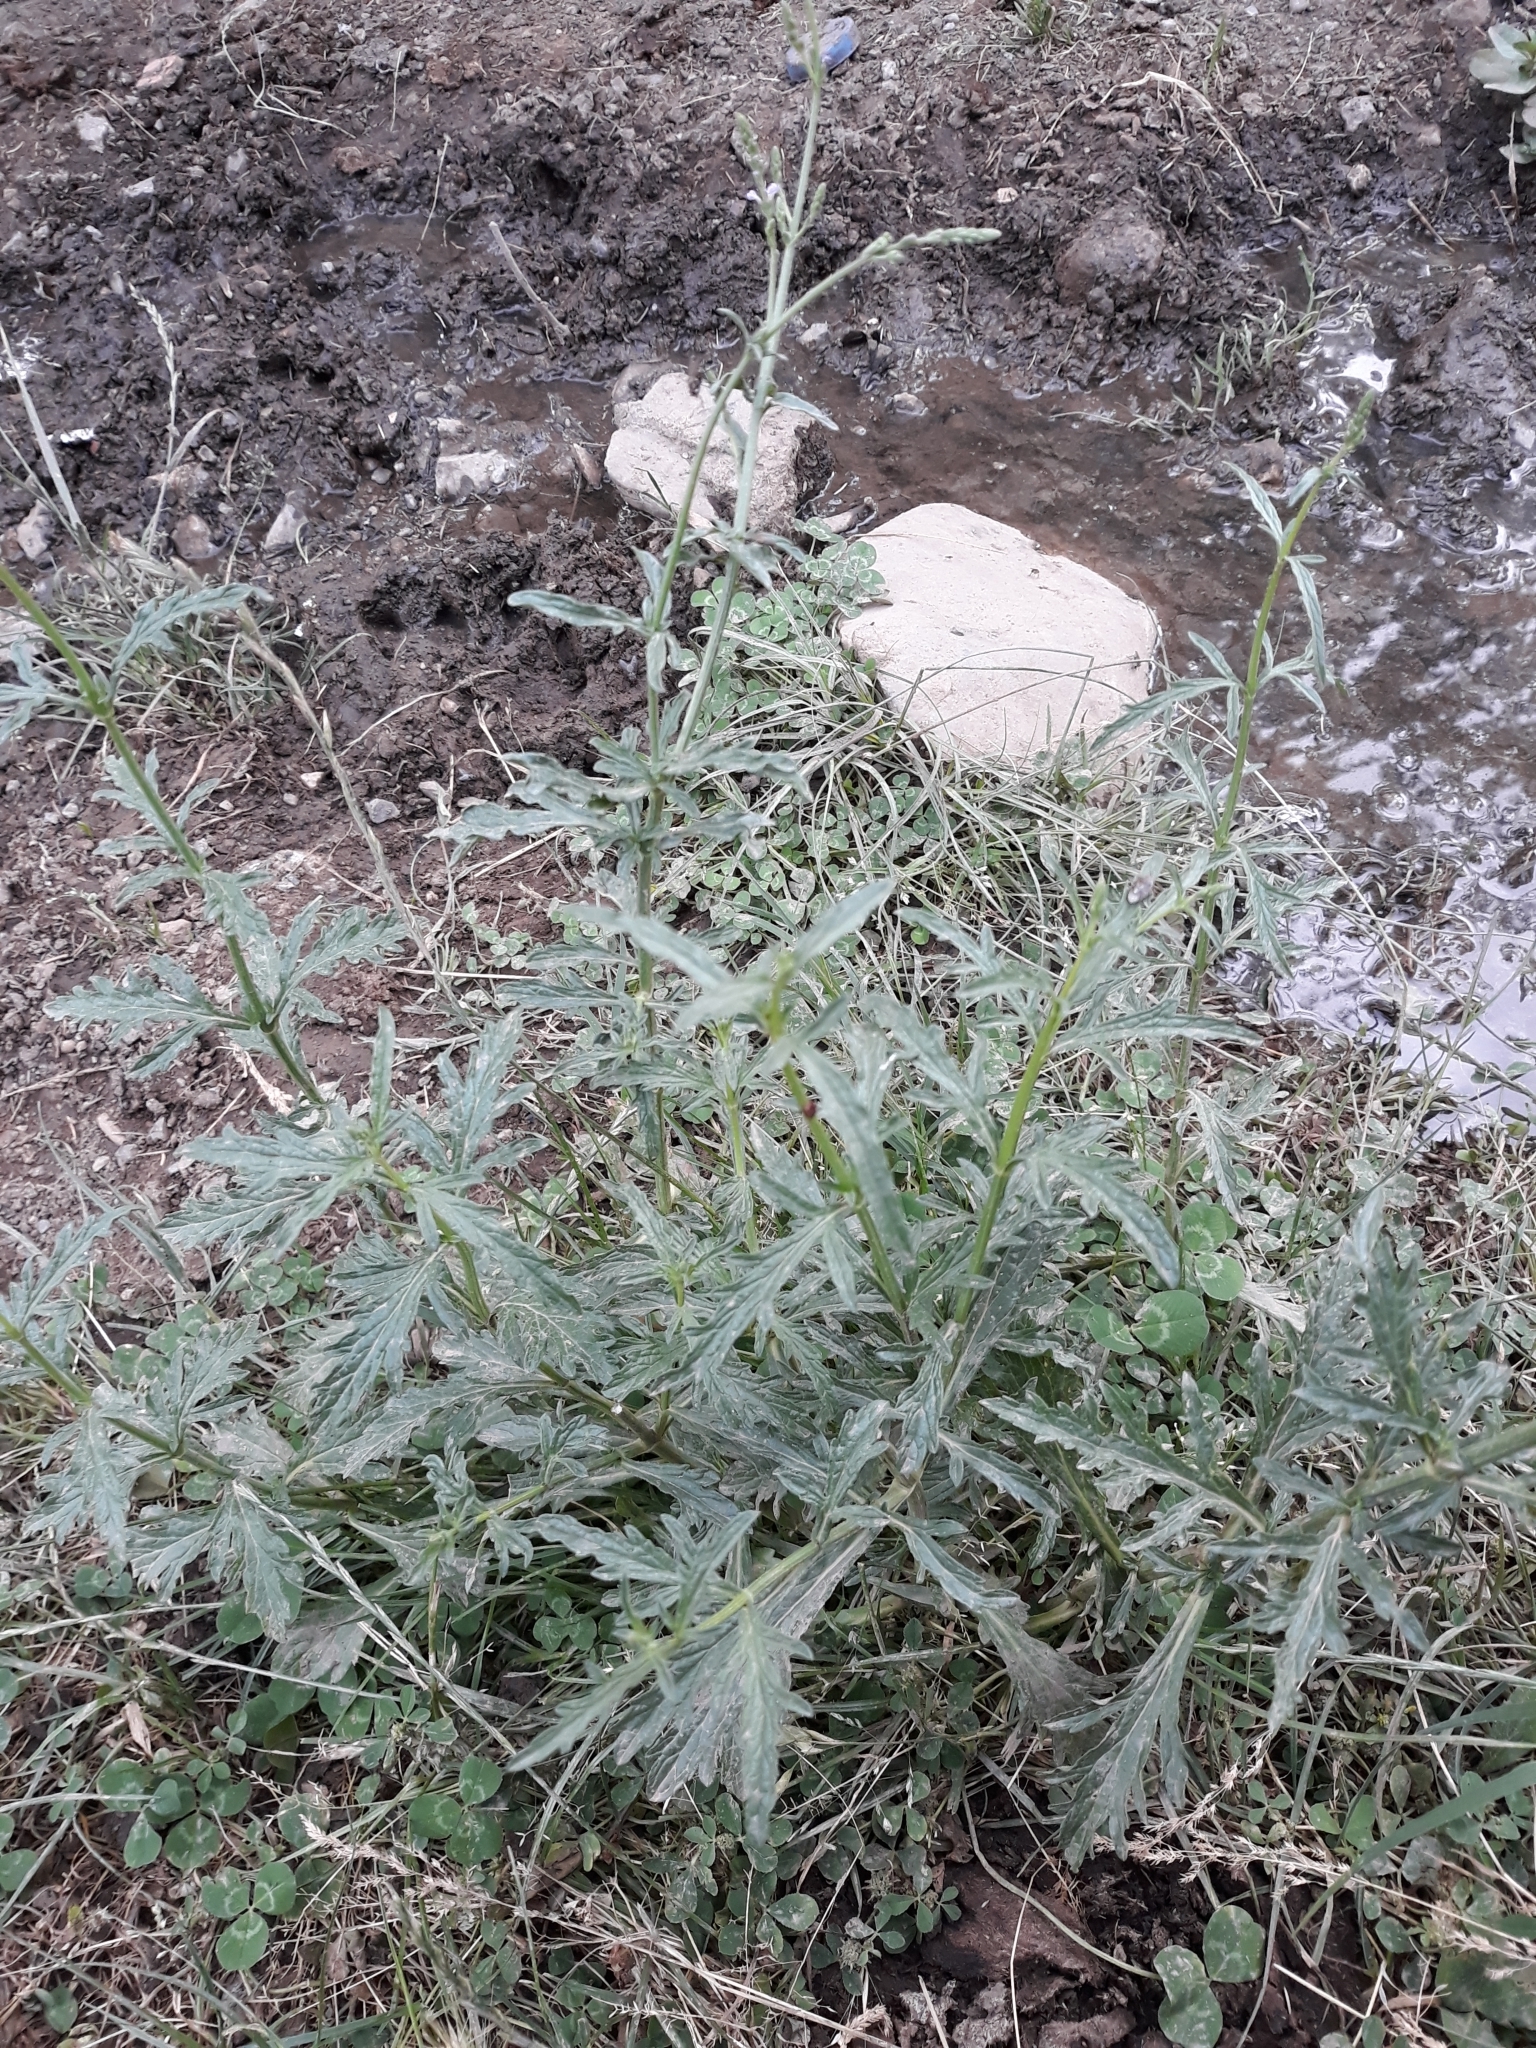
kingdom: Plantae
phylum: Tracheophyta
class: Magnoliopsida
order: Lamiales
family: Verbenaceae
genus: Verbena
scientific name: Verbena officinalis
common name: Vervain
